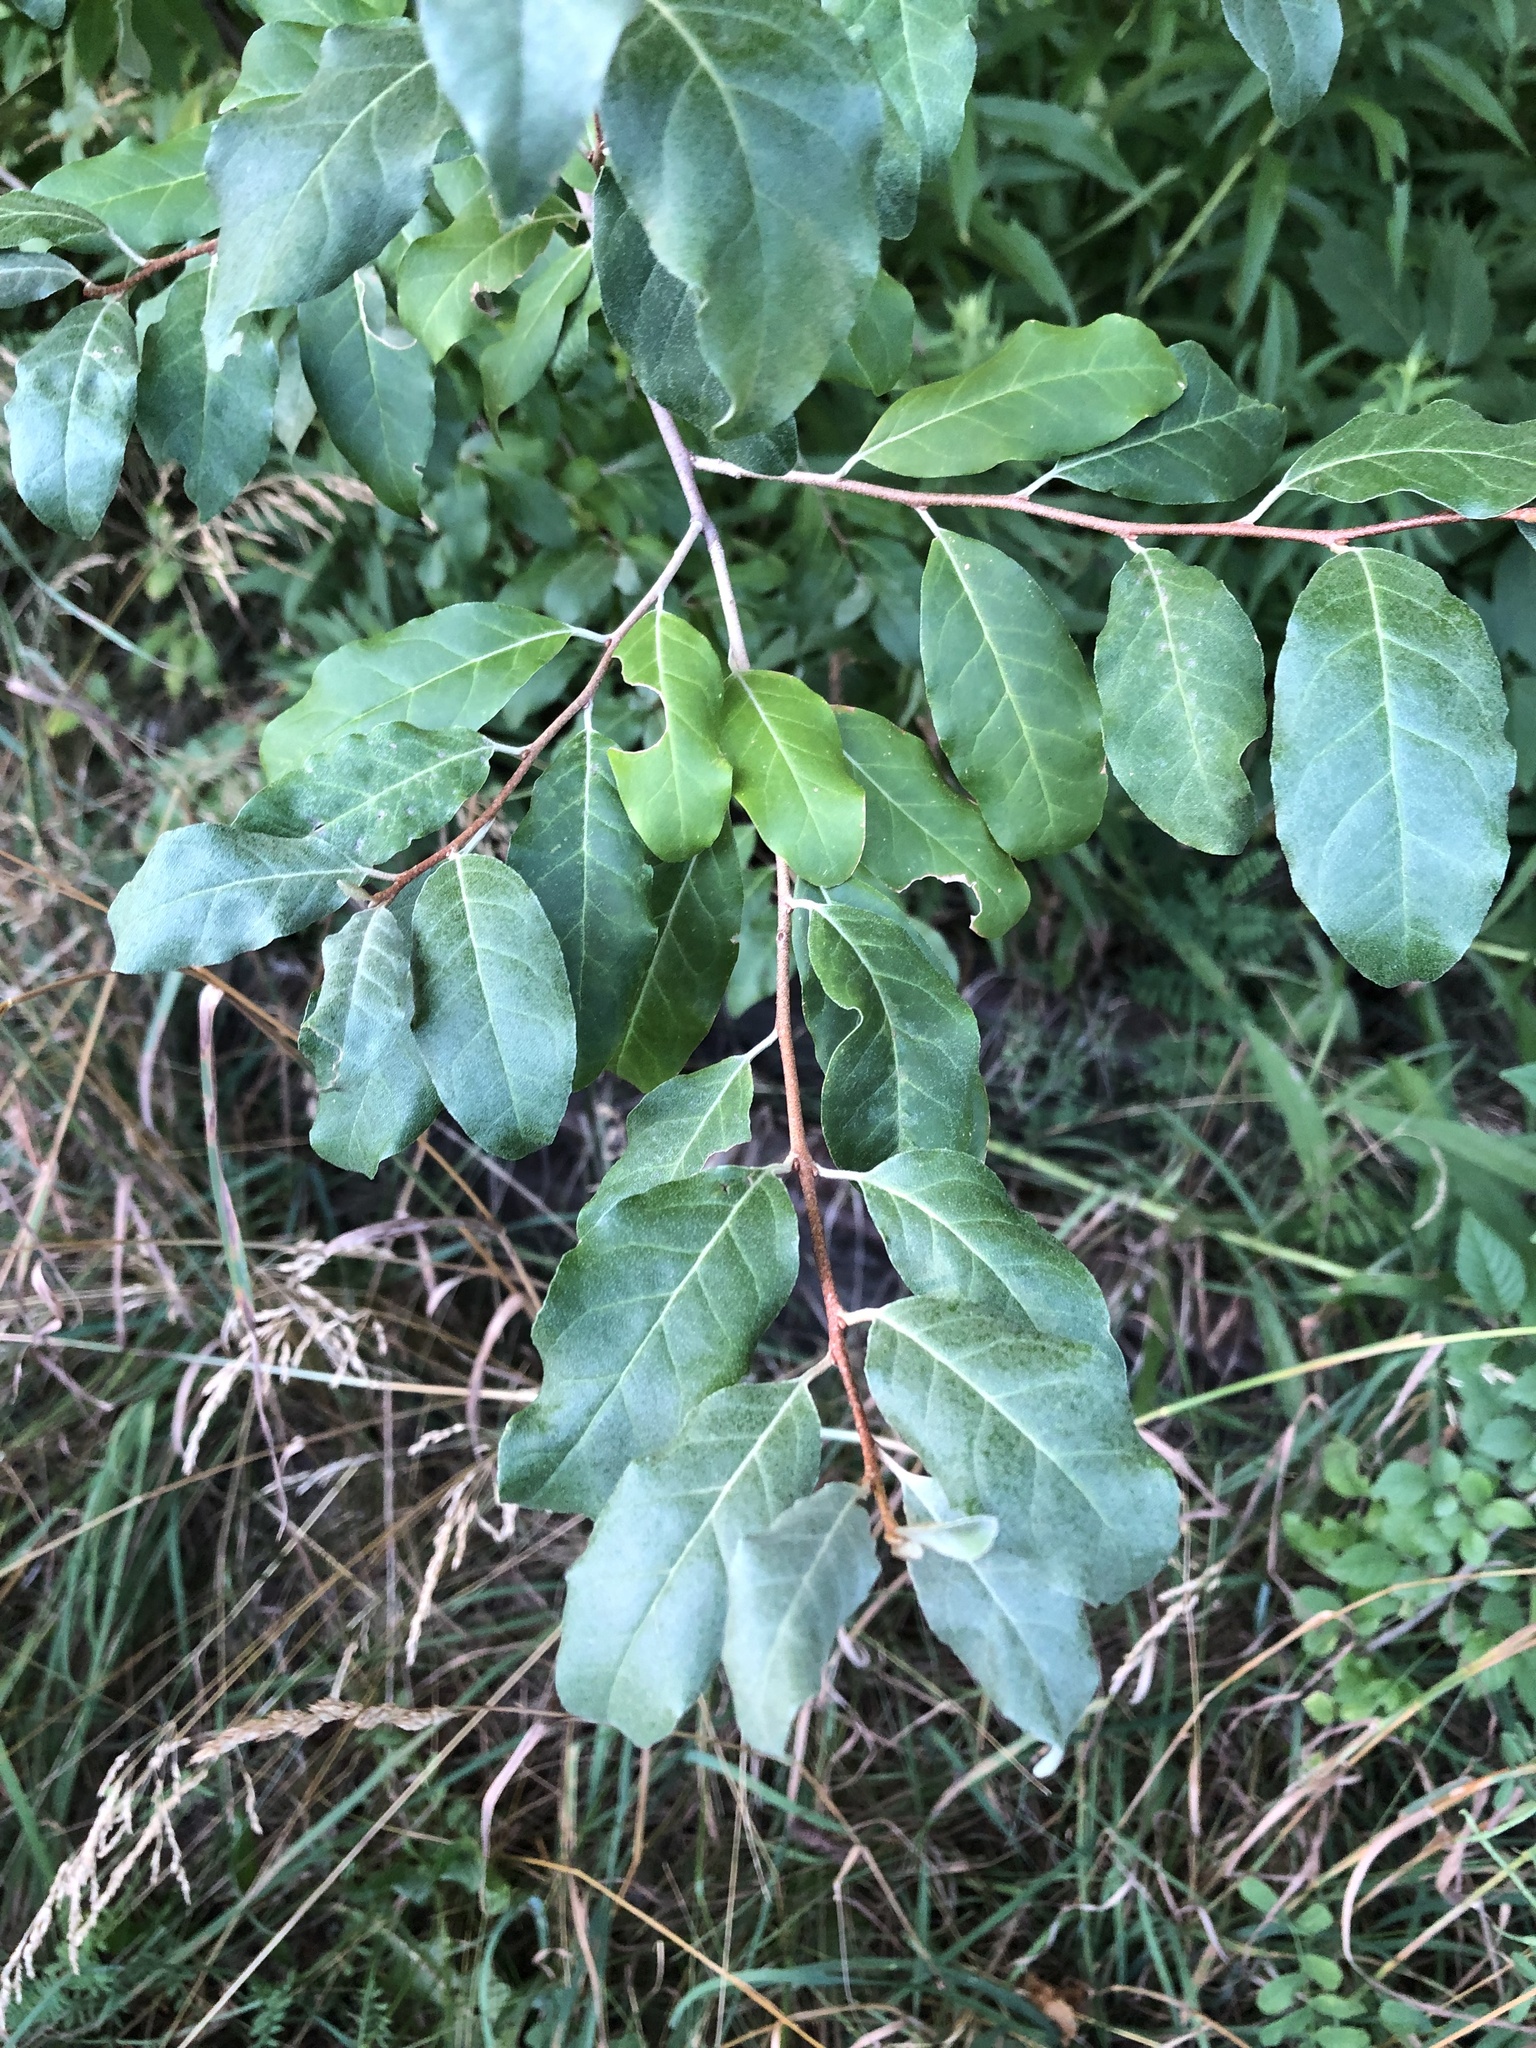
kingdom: Plantae
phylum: Tracheophyta
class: Magnoliopsida
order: Rosales
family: Elaeagnaceae
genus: Elaeagnus
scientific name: Elaeagnus umbellata
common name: Autumn olive
